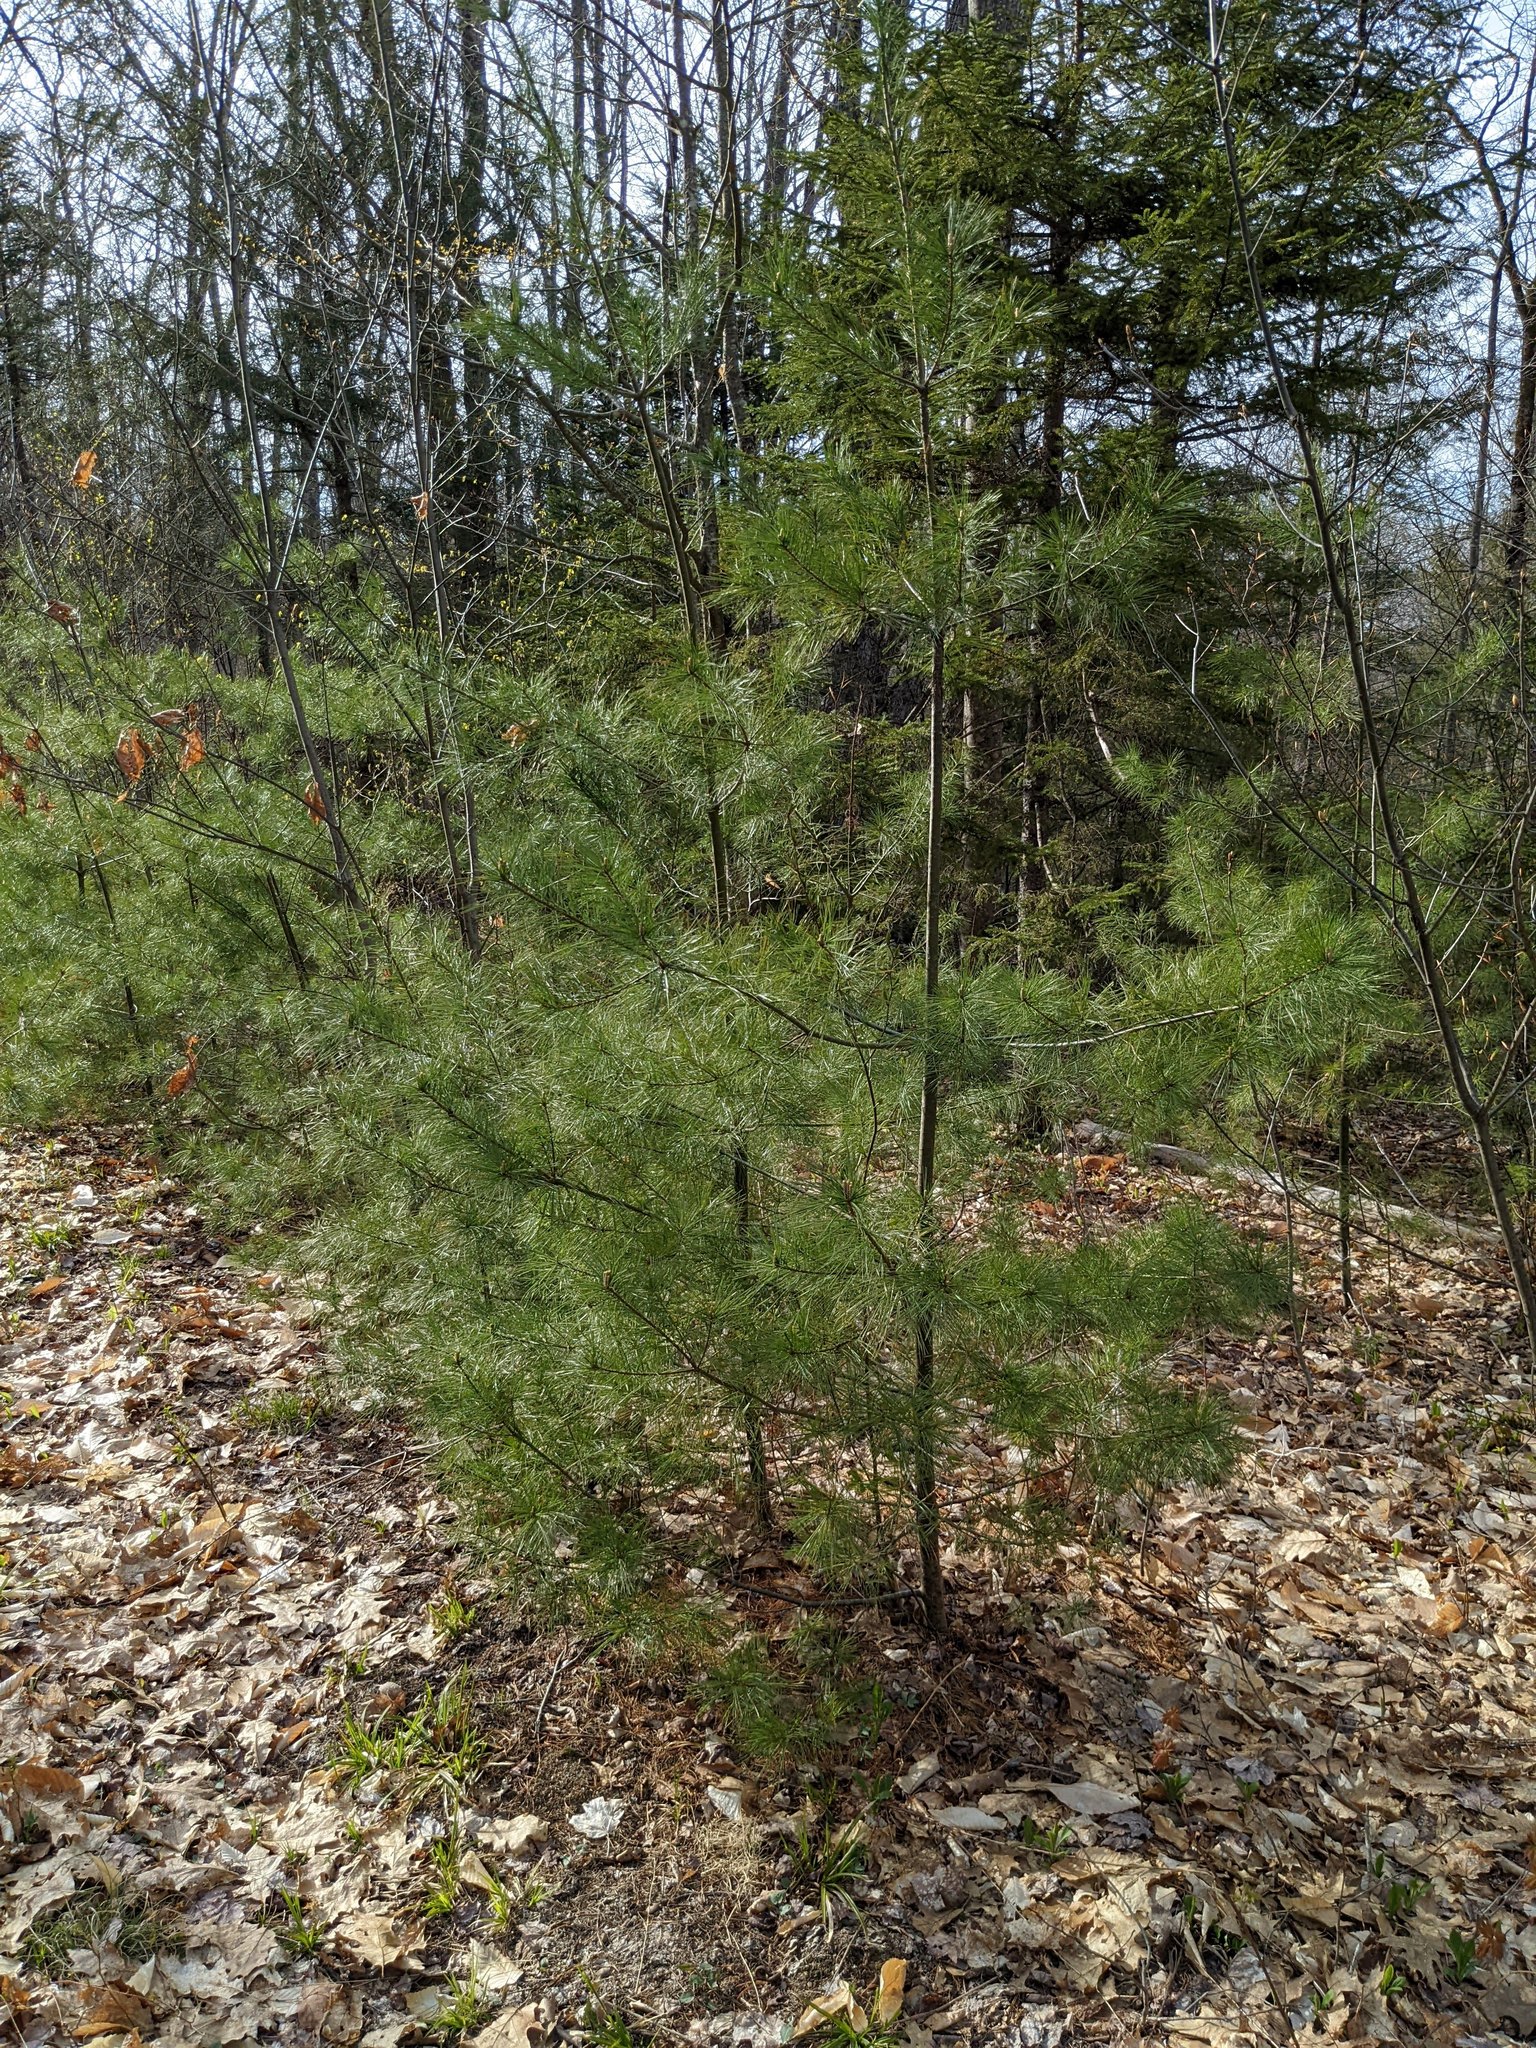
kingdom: Plantae
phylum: Tracheophyta
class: Pinopsida
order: Pinales
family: Pinaceae
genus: Pinus
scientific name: Pinus strobus
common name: Weymouth pine
